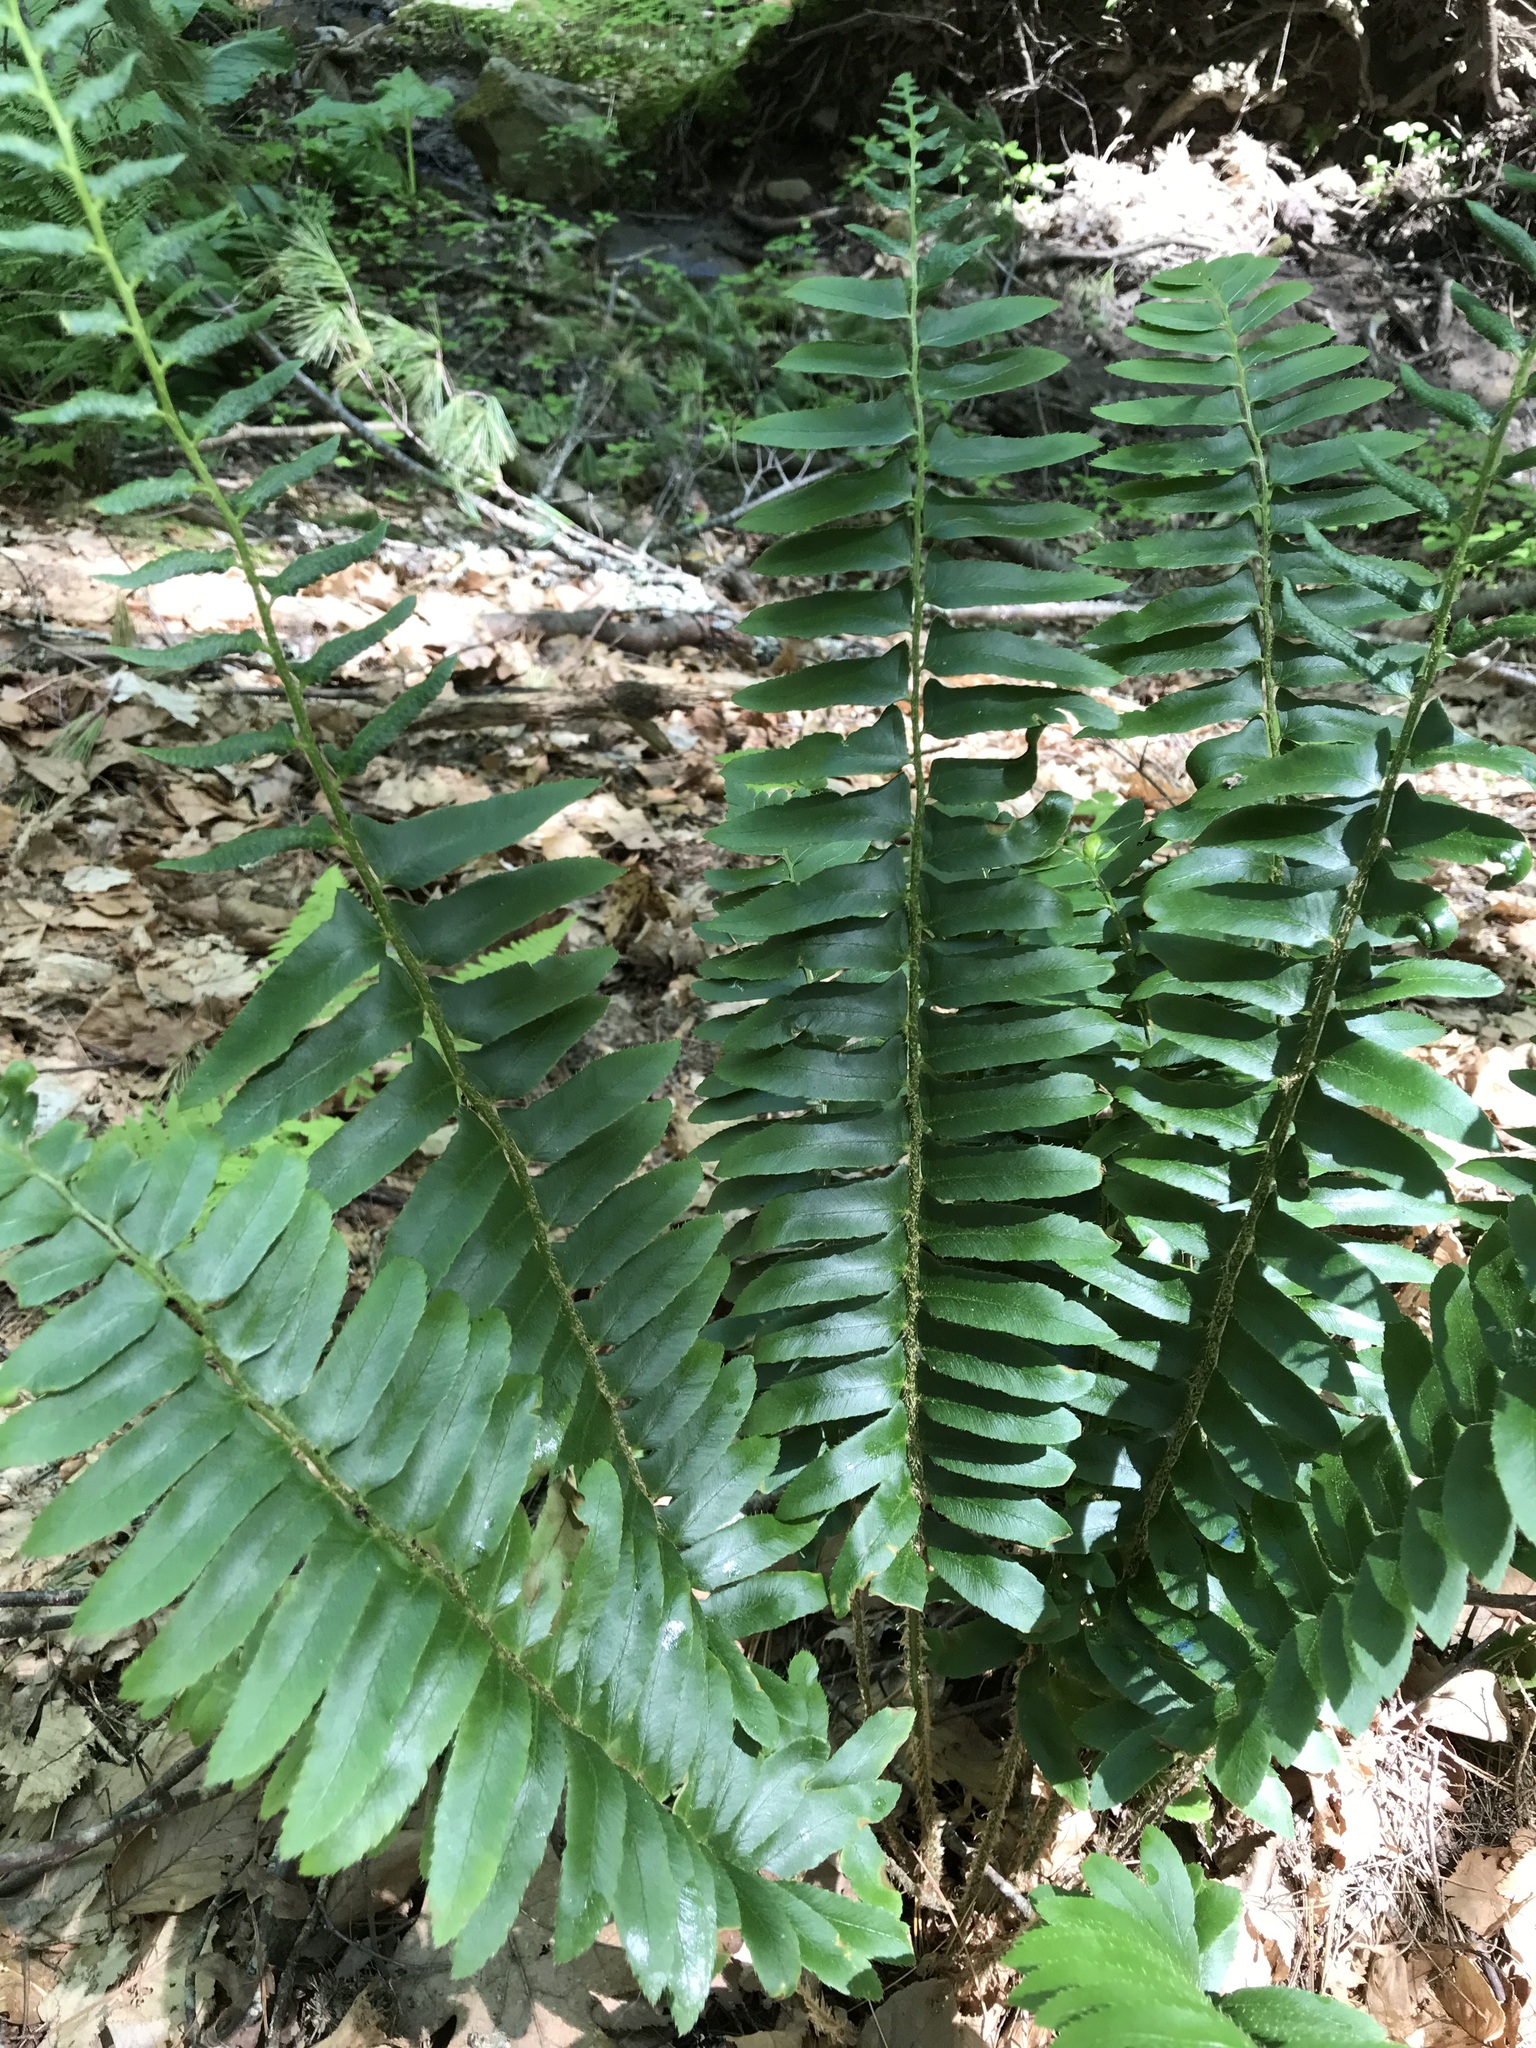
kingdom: Plantae
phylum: Tracheophyta
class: Polypodiopsida
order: Polypodiales
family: Dryopteridaceae
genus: Polystichum
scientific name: Polystichum acrostichoides
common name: Christmas fern
